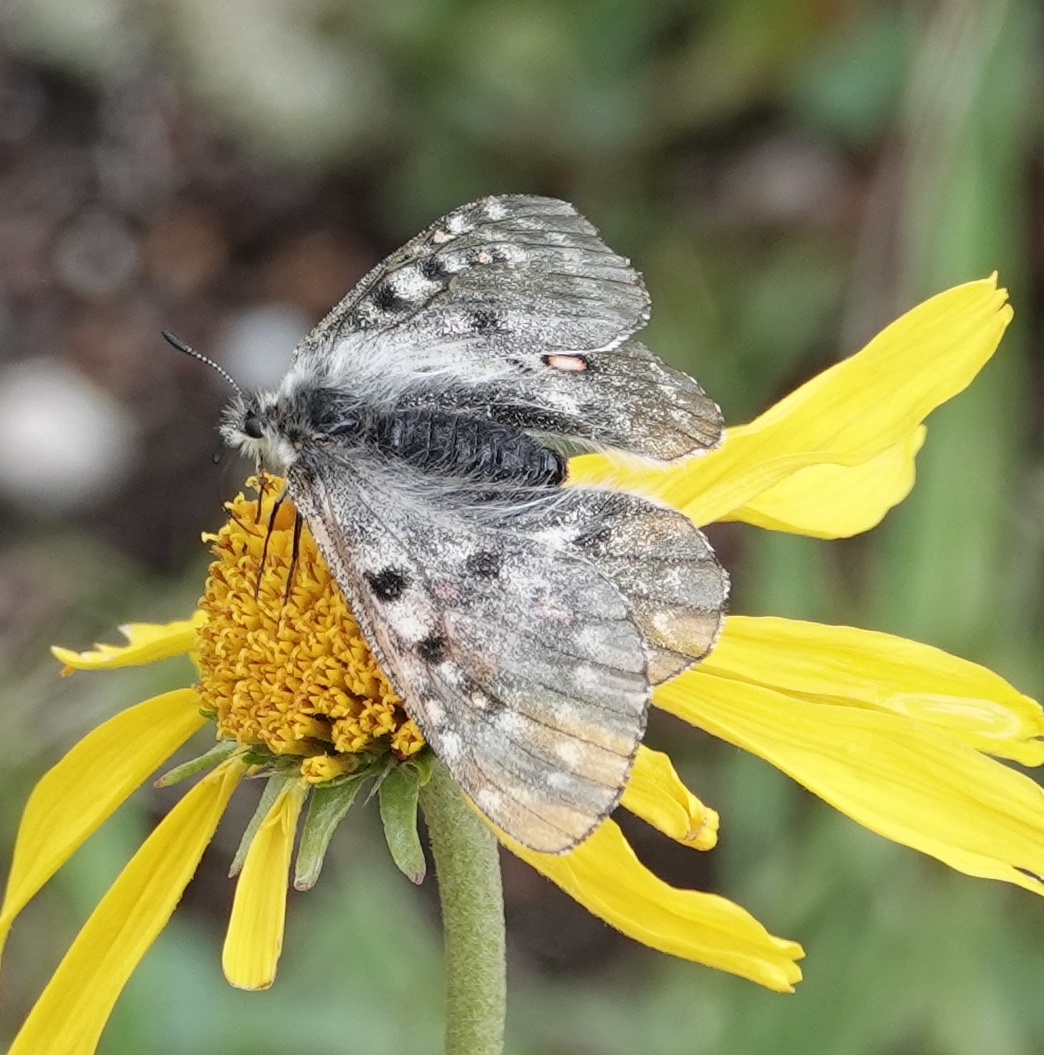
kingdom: Animalia
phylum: Arthropoda
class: Insecta
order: Lepidoptera
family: Papilionidae
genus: Parnassius
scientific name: Parnassius smintheus
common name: Mountain parnassian
